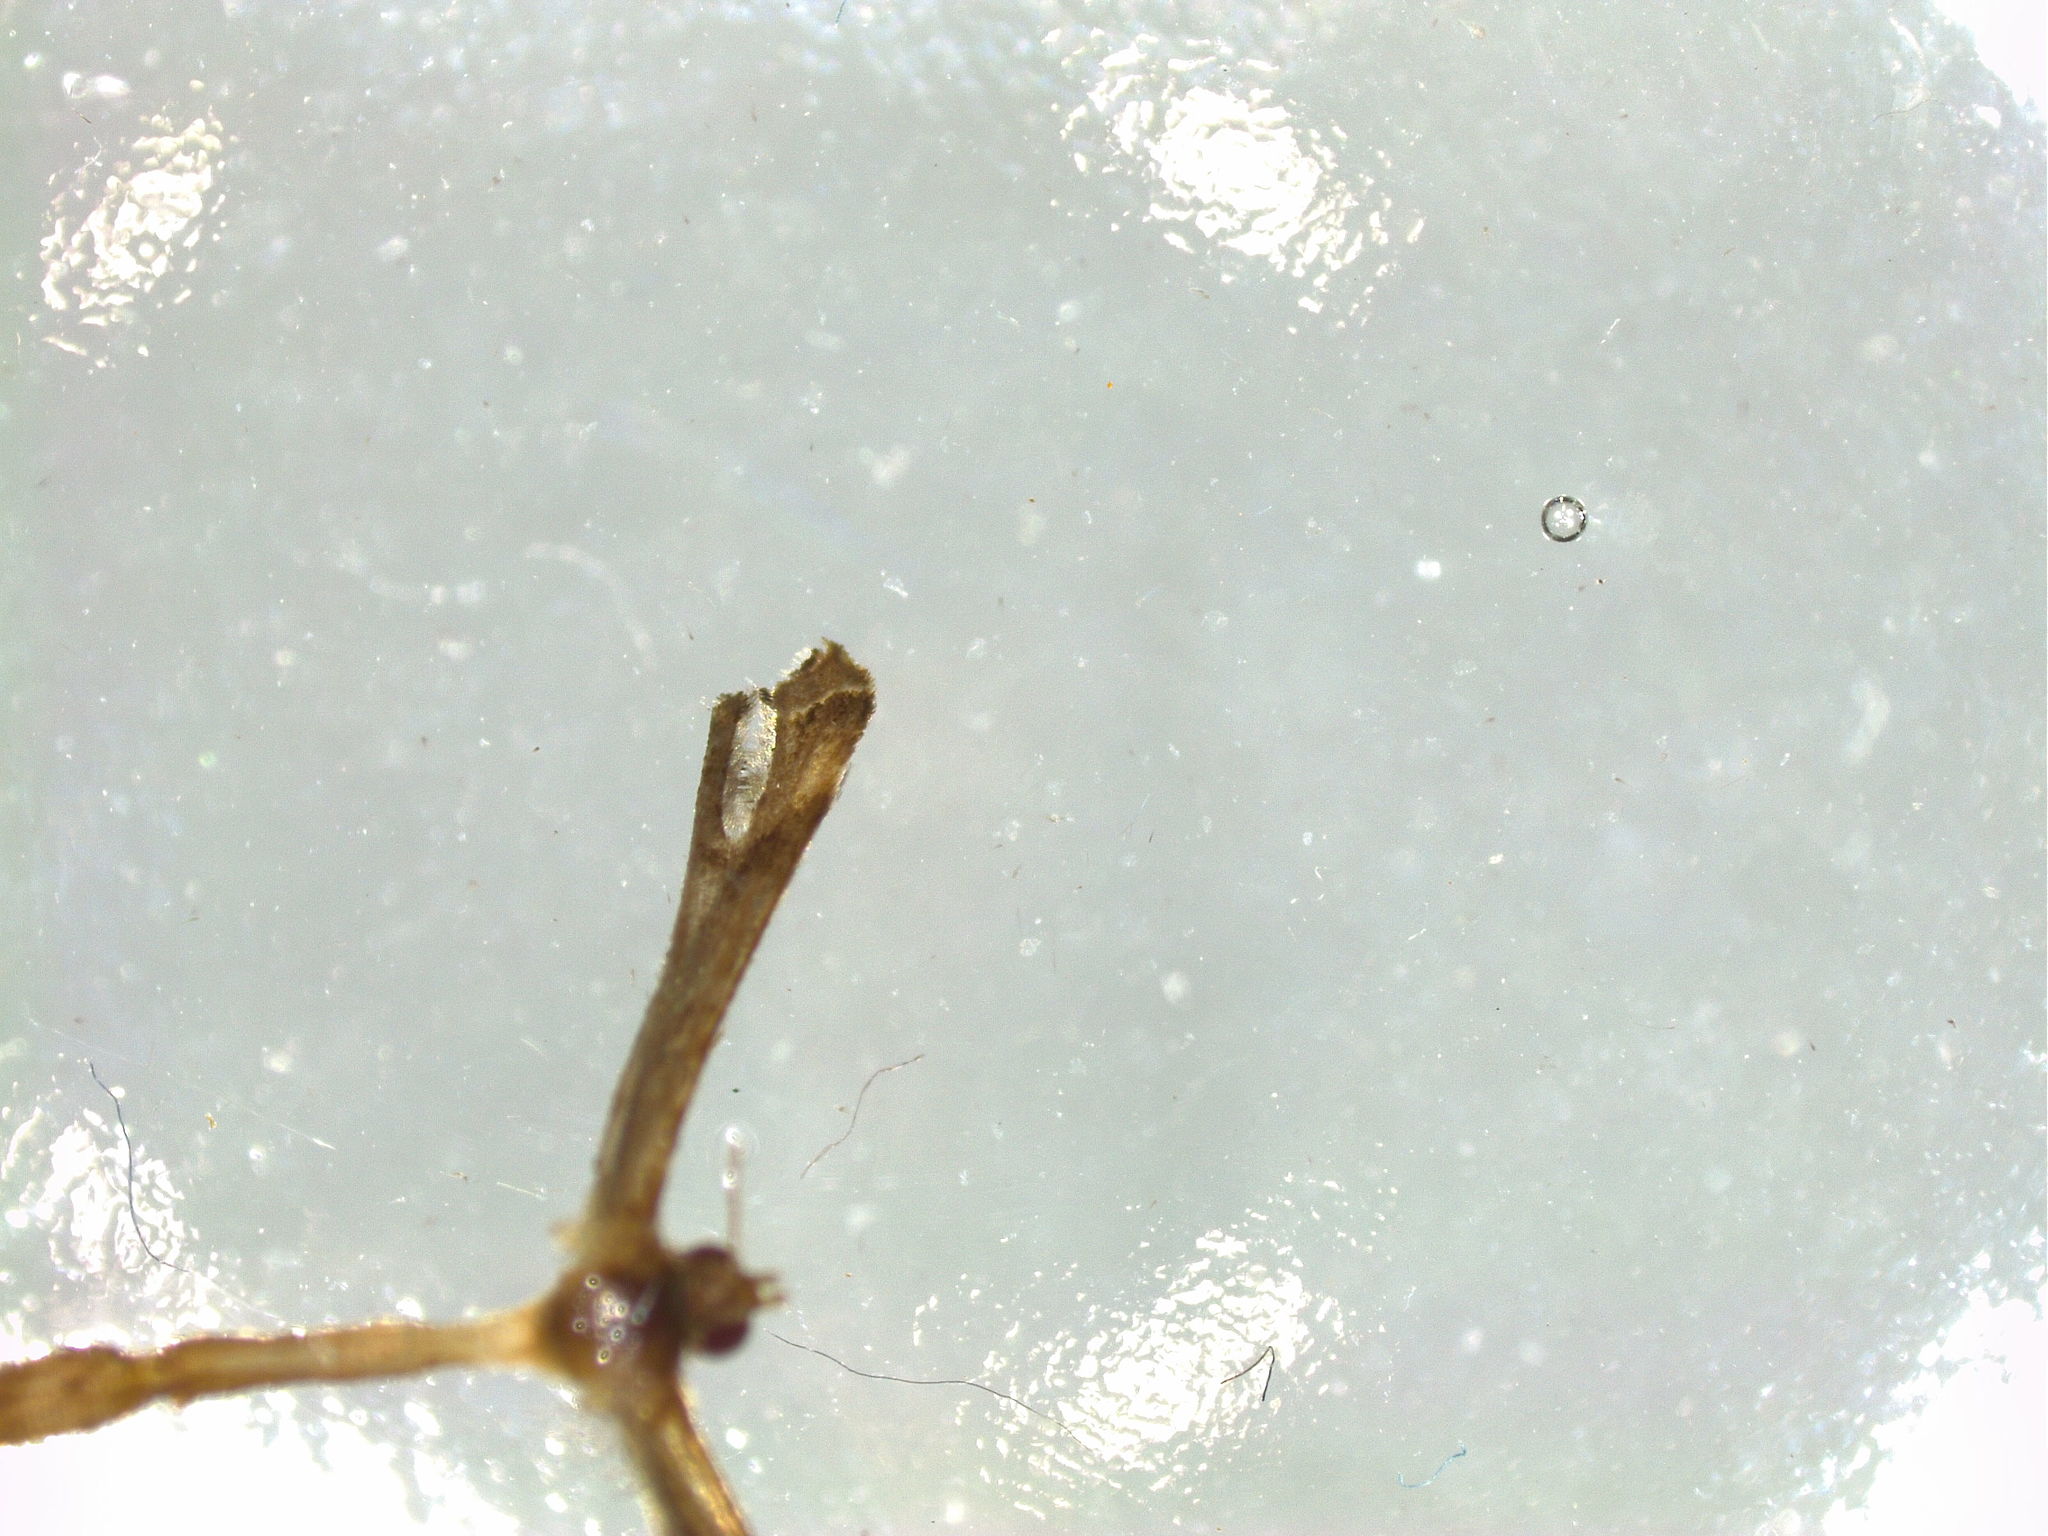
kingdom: Animalia
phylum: Arthropoda
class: Insecta
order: Lepidoptera
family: Pterophoridae
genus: Stenoptilodes
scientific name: Stenoptilodes taprobanes
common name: Moth
